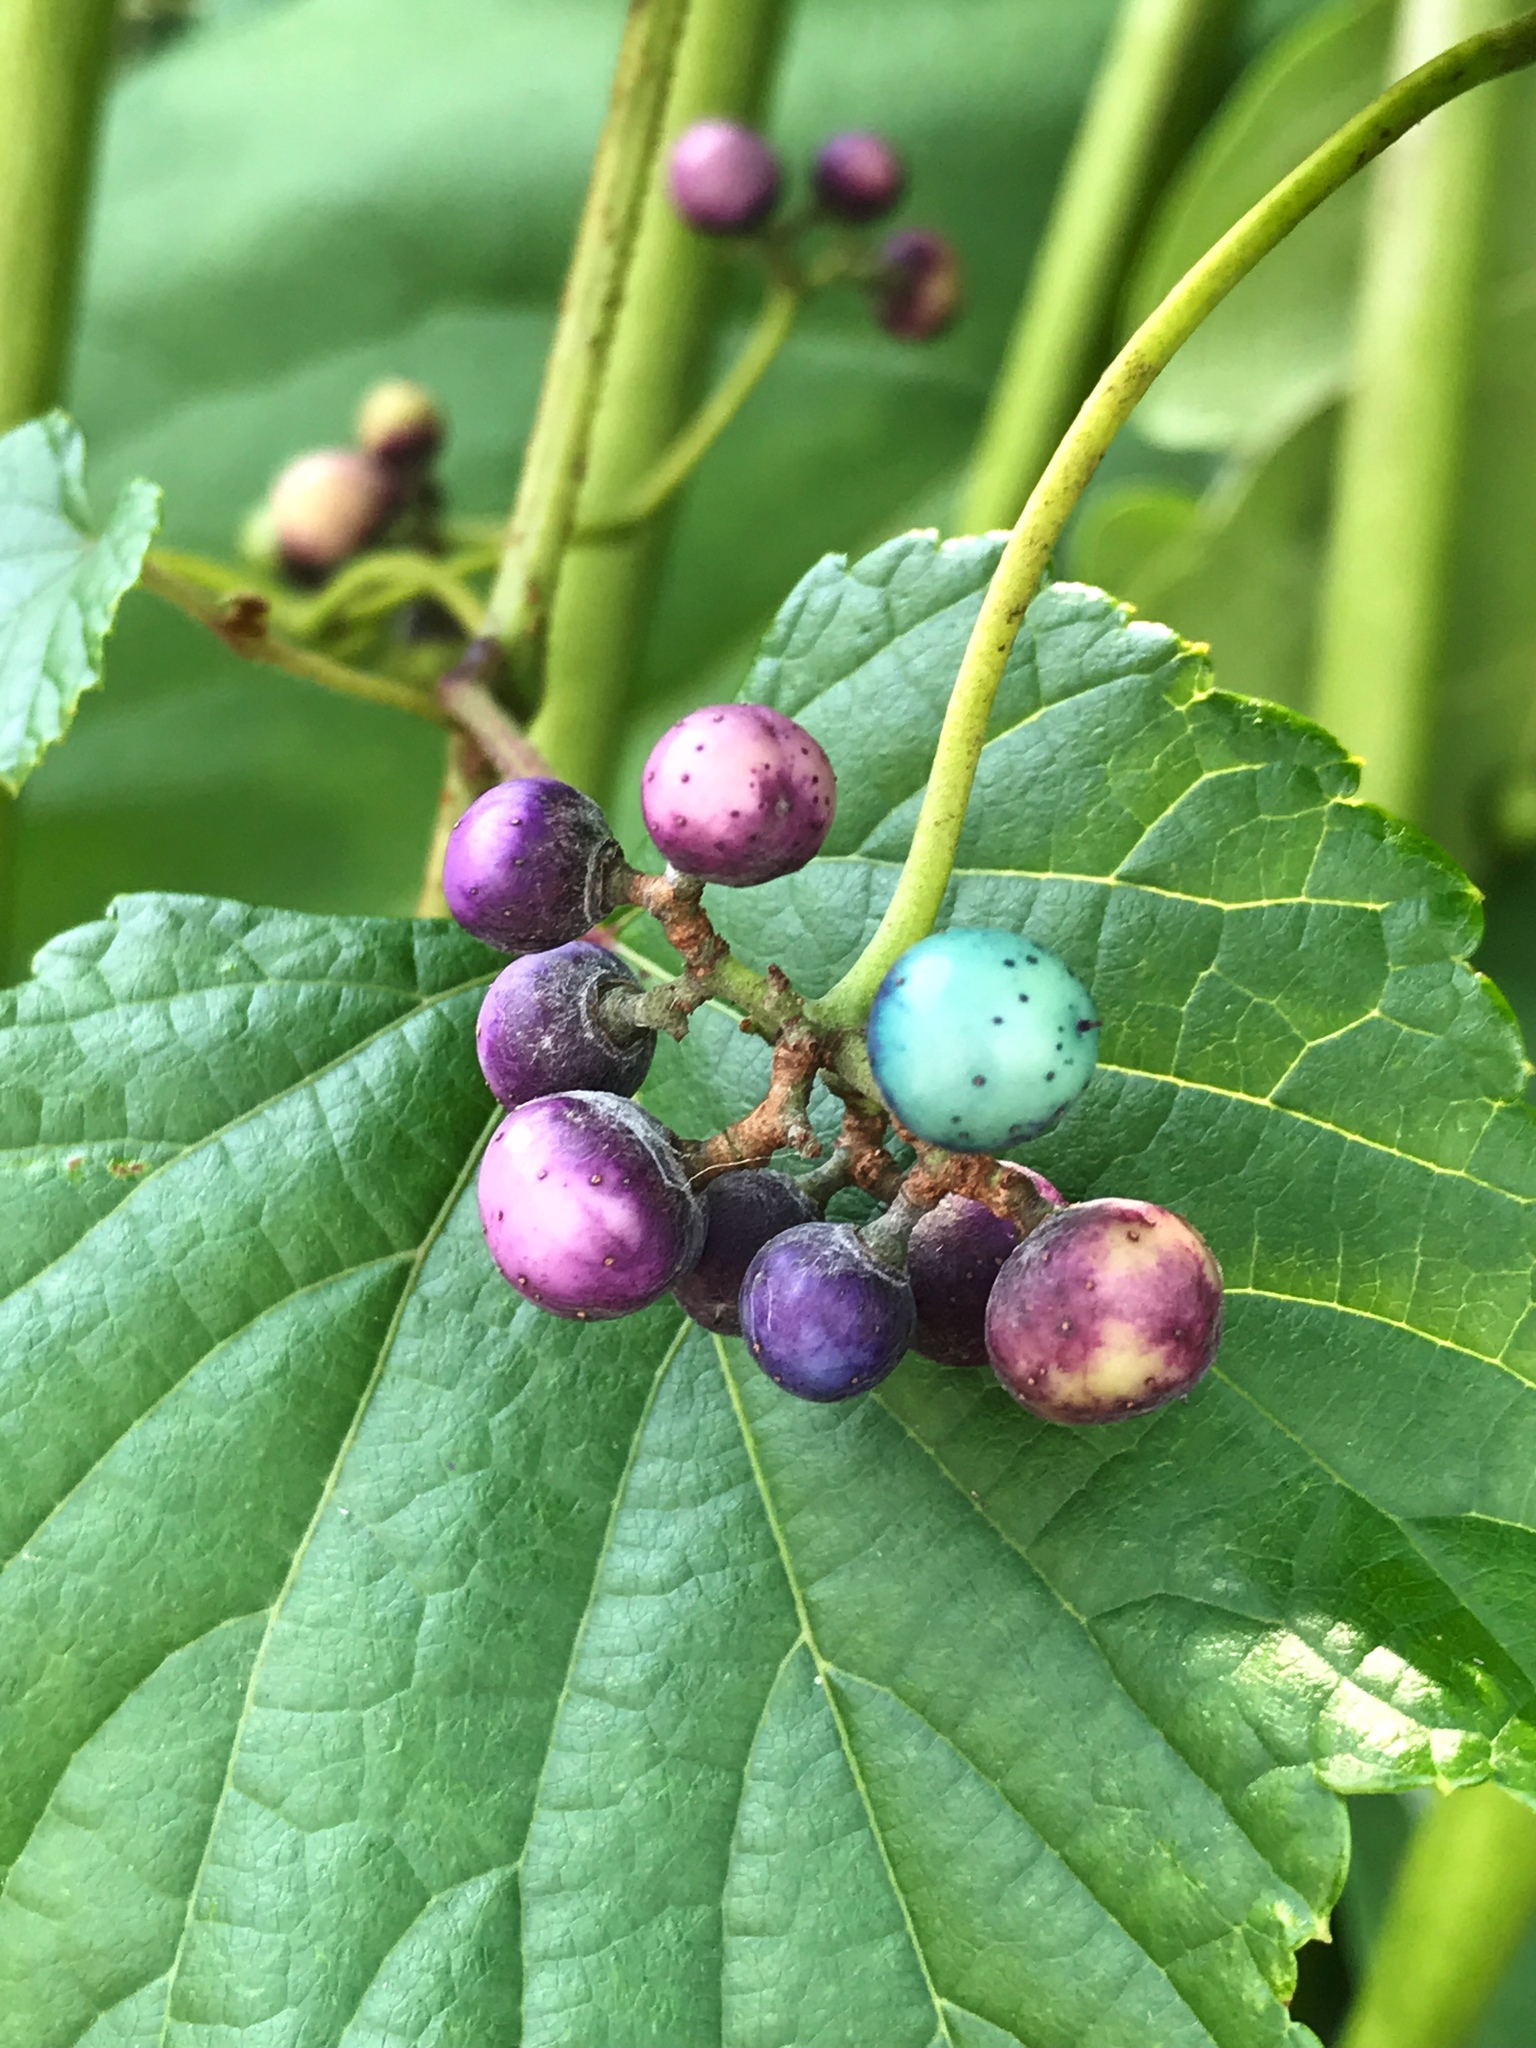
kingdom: Plantae
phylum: Tracheophyta
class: Magnoliopsida
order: Vitales
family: Vitaceae
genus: Ampelopsis
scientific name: Ampelopsis glandulosa
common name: Amur peppervine
